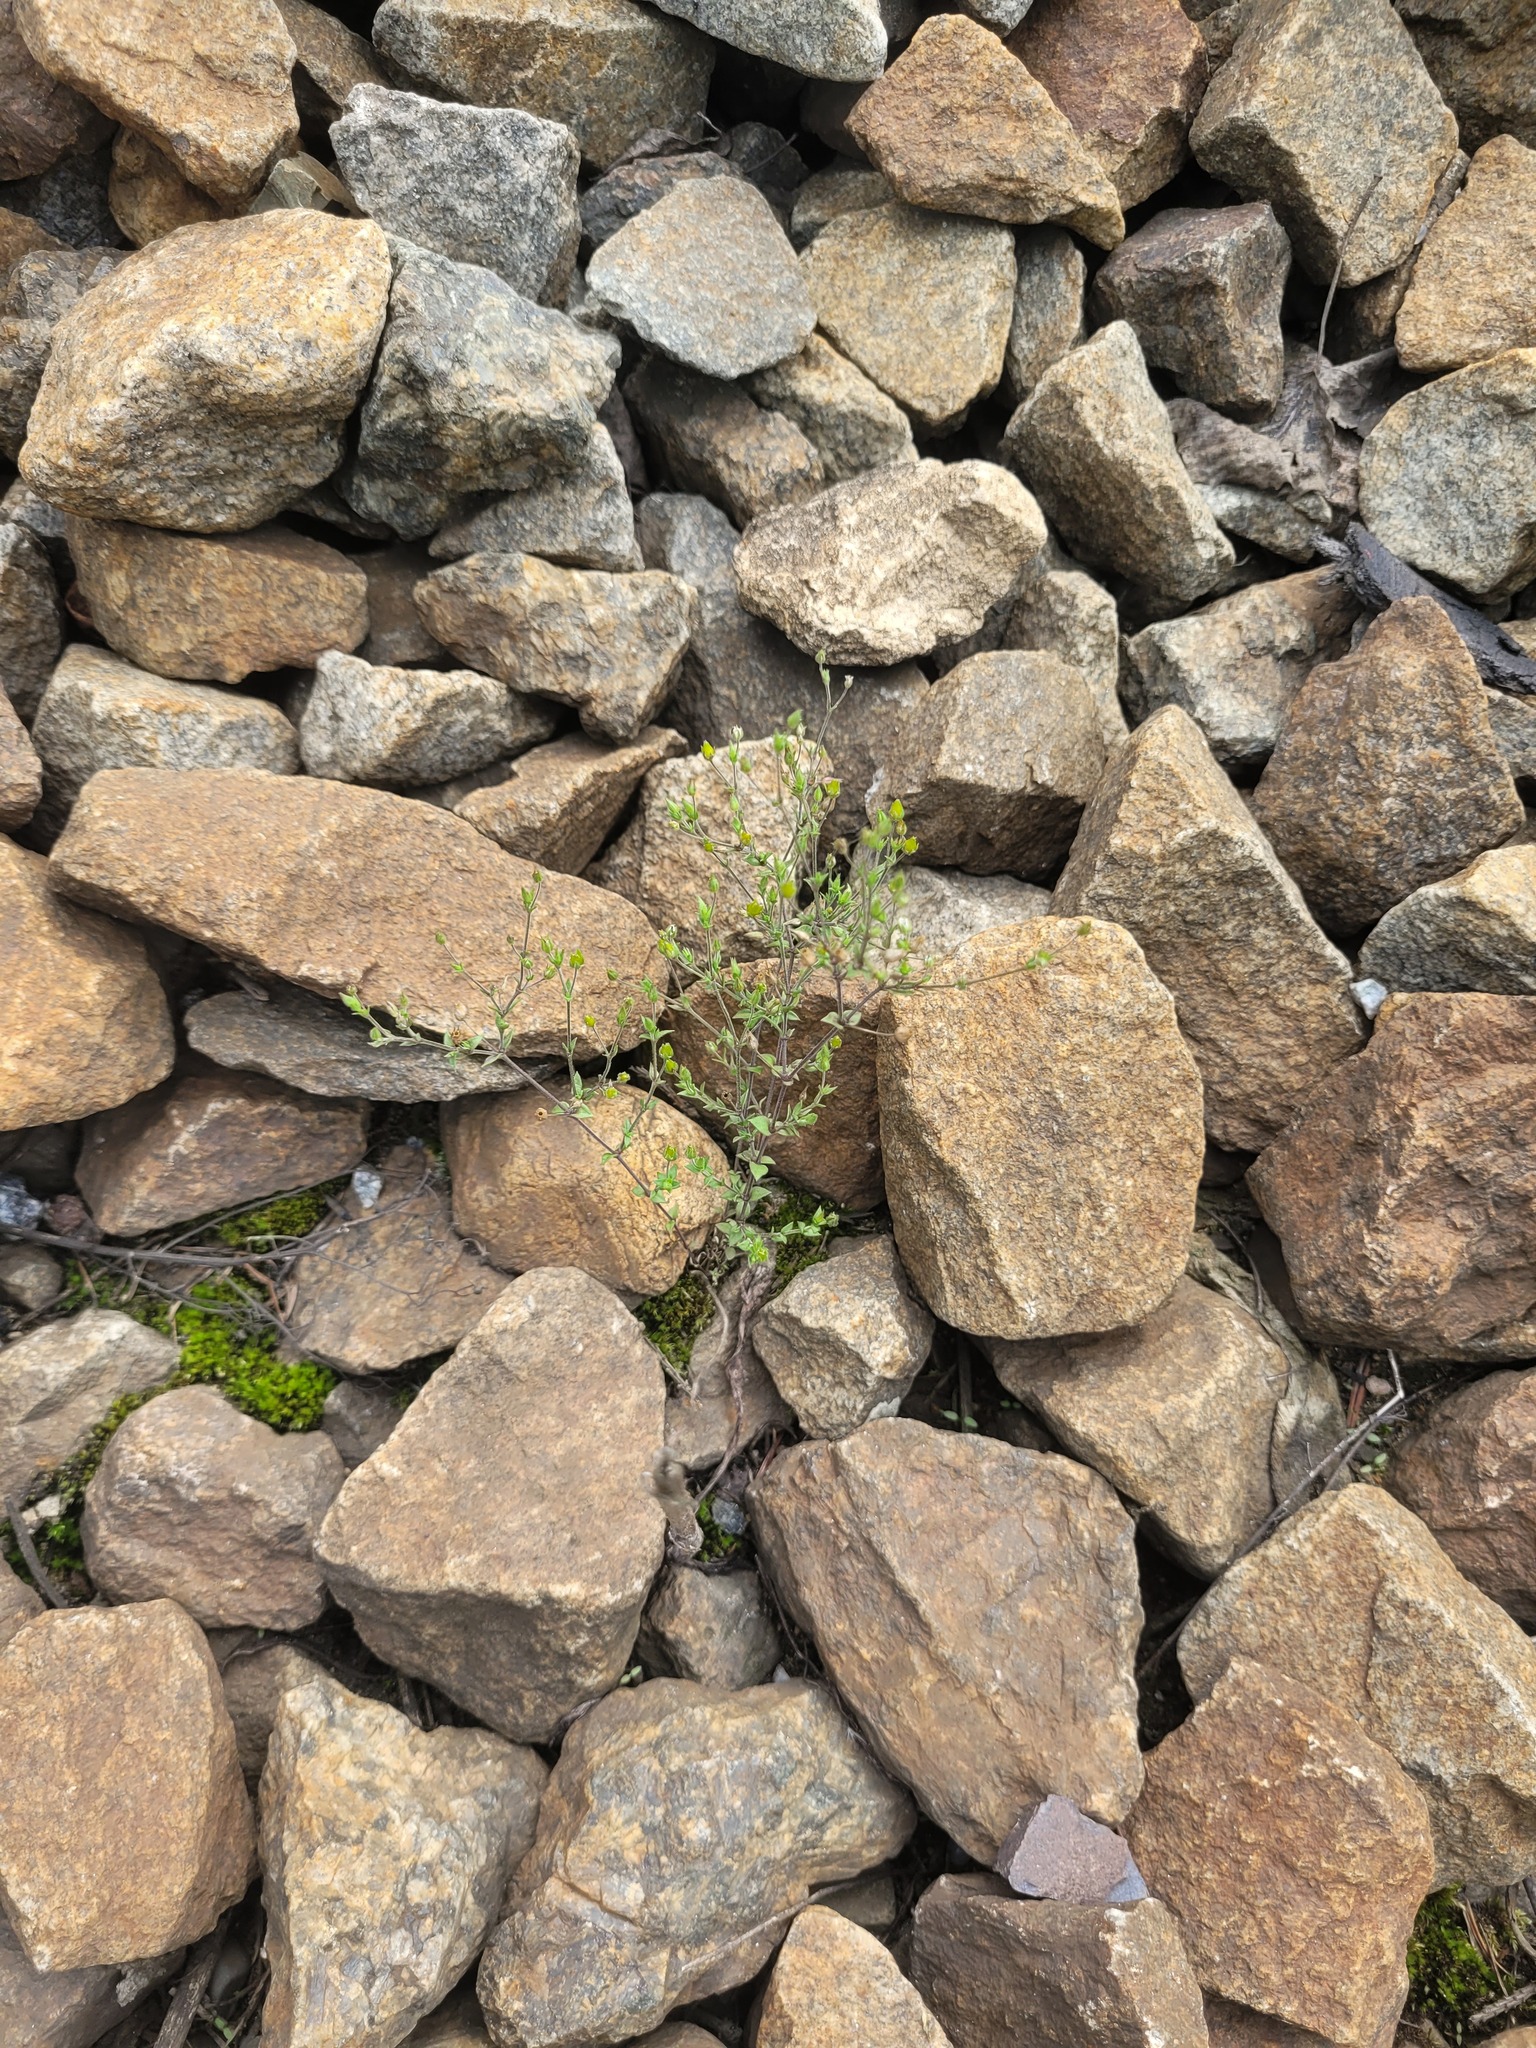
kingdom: Plantae
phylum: Tracheophyta
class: Magnoliopsida
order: Caryophyllales
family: Caryophyllaceae
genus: Arenaria
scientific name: Arenaria serpyllifolia
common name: Thyme-leaved sandwort
